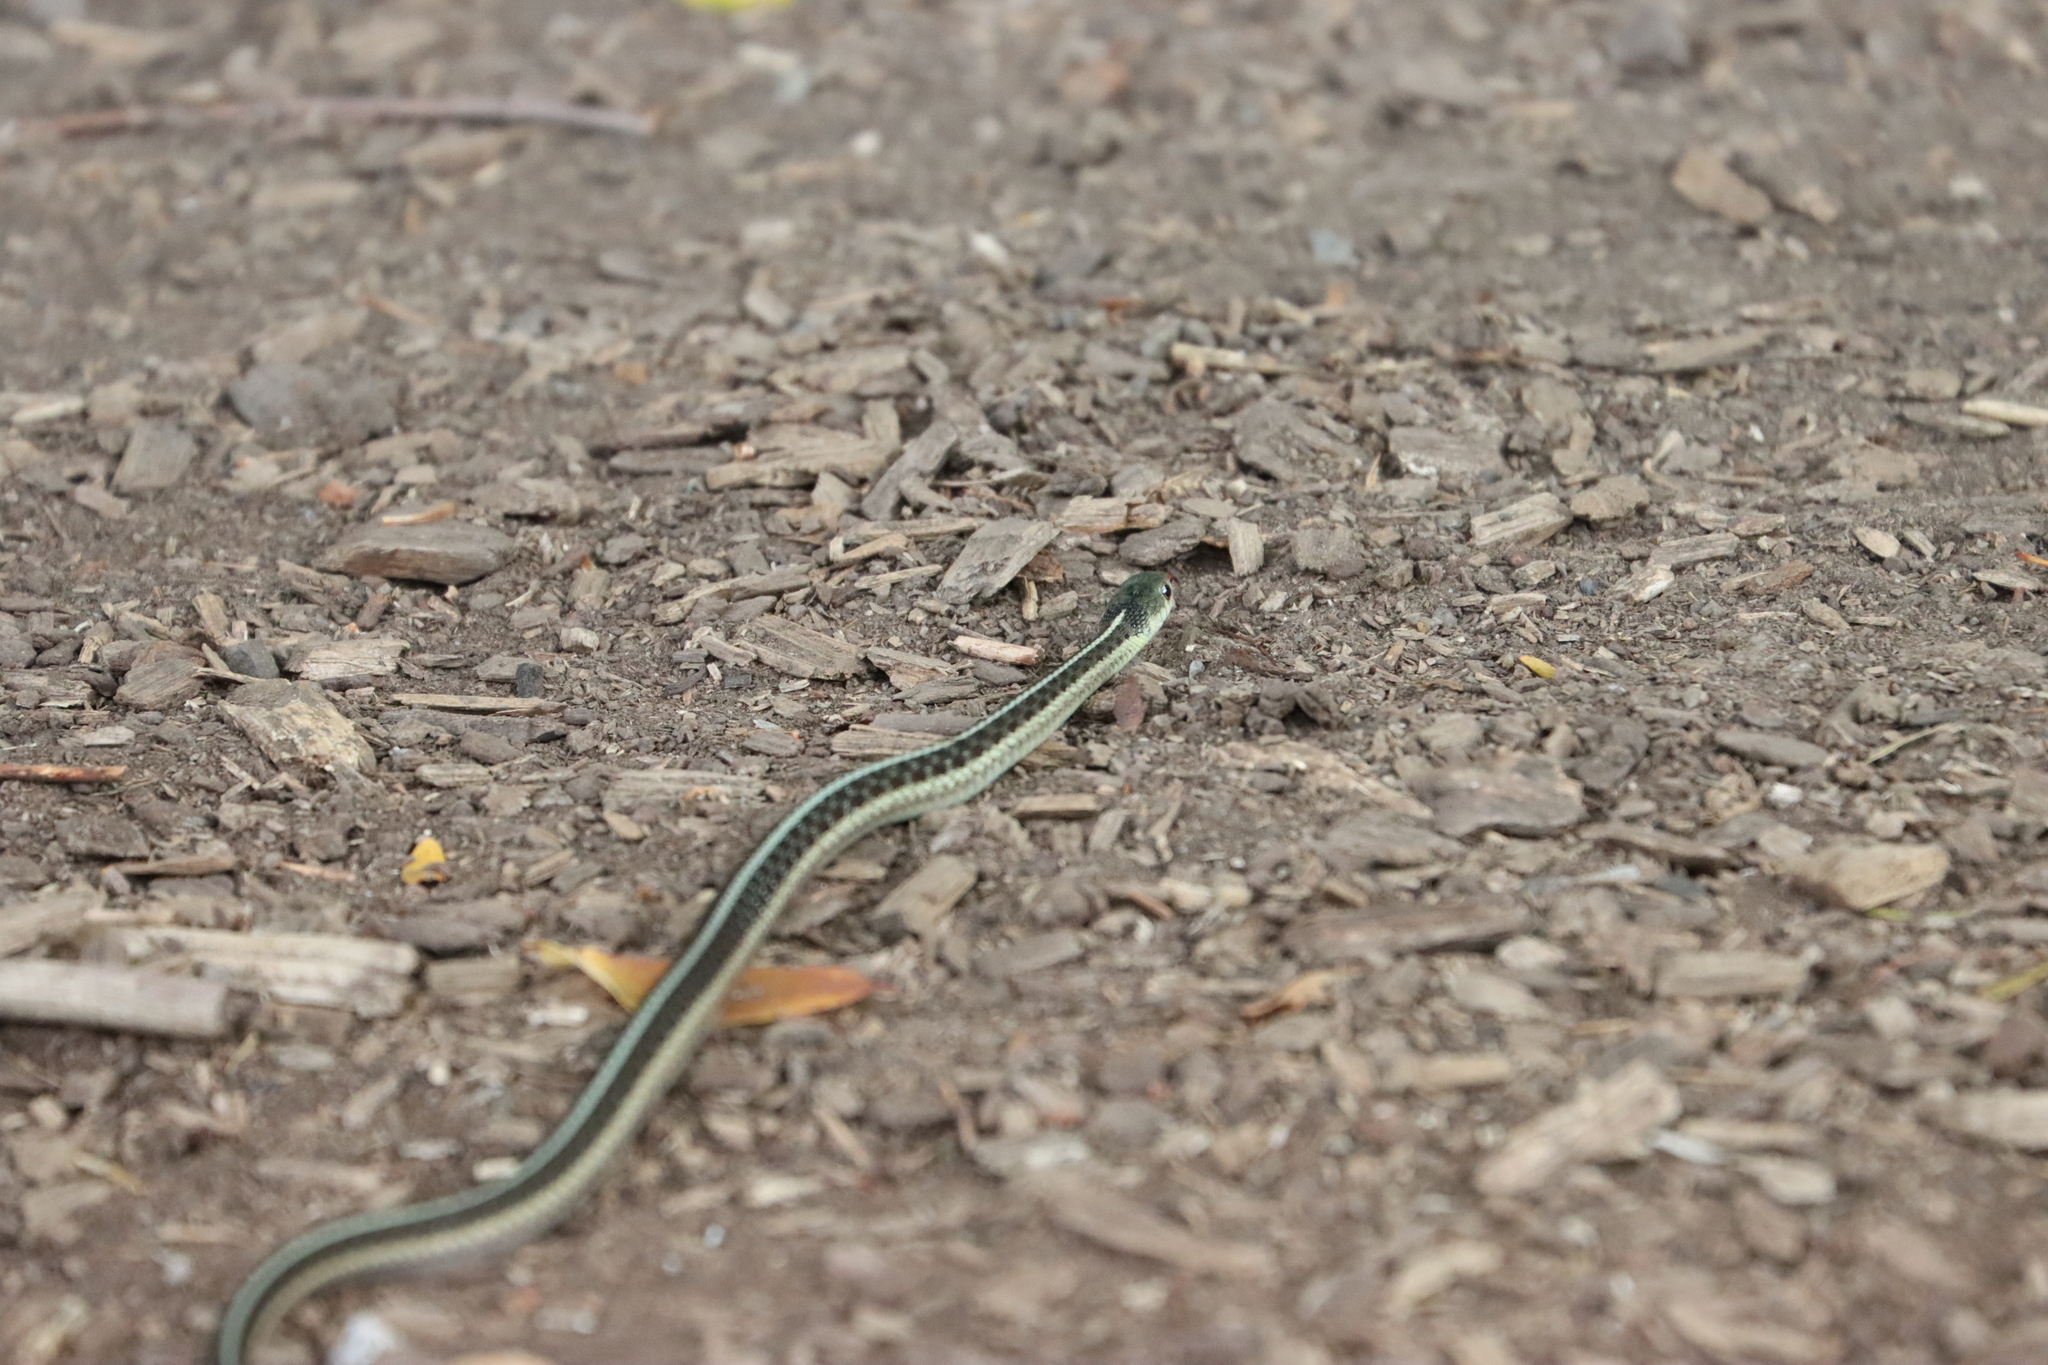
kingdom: Animalia
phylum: Chordata
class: Squamata
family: Colubridae
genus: Thamnophis
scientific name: Thamnophis sirtalis
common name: Common garter snake
